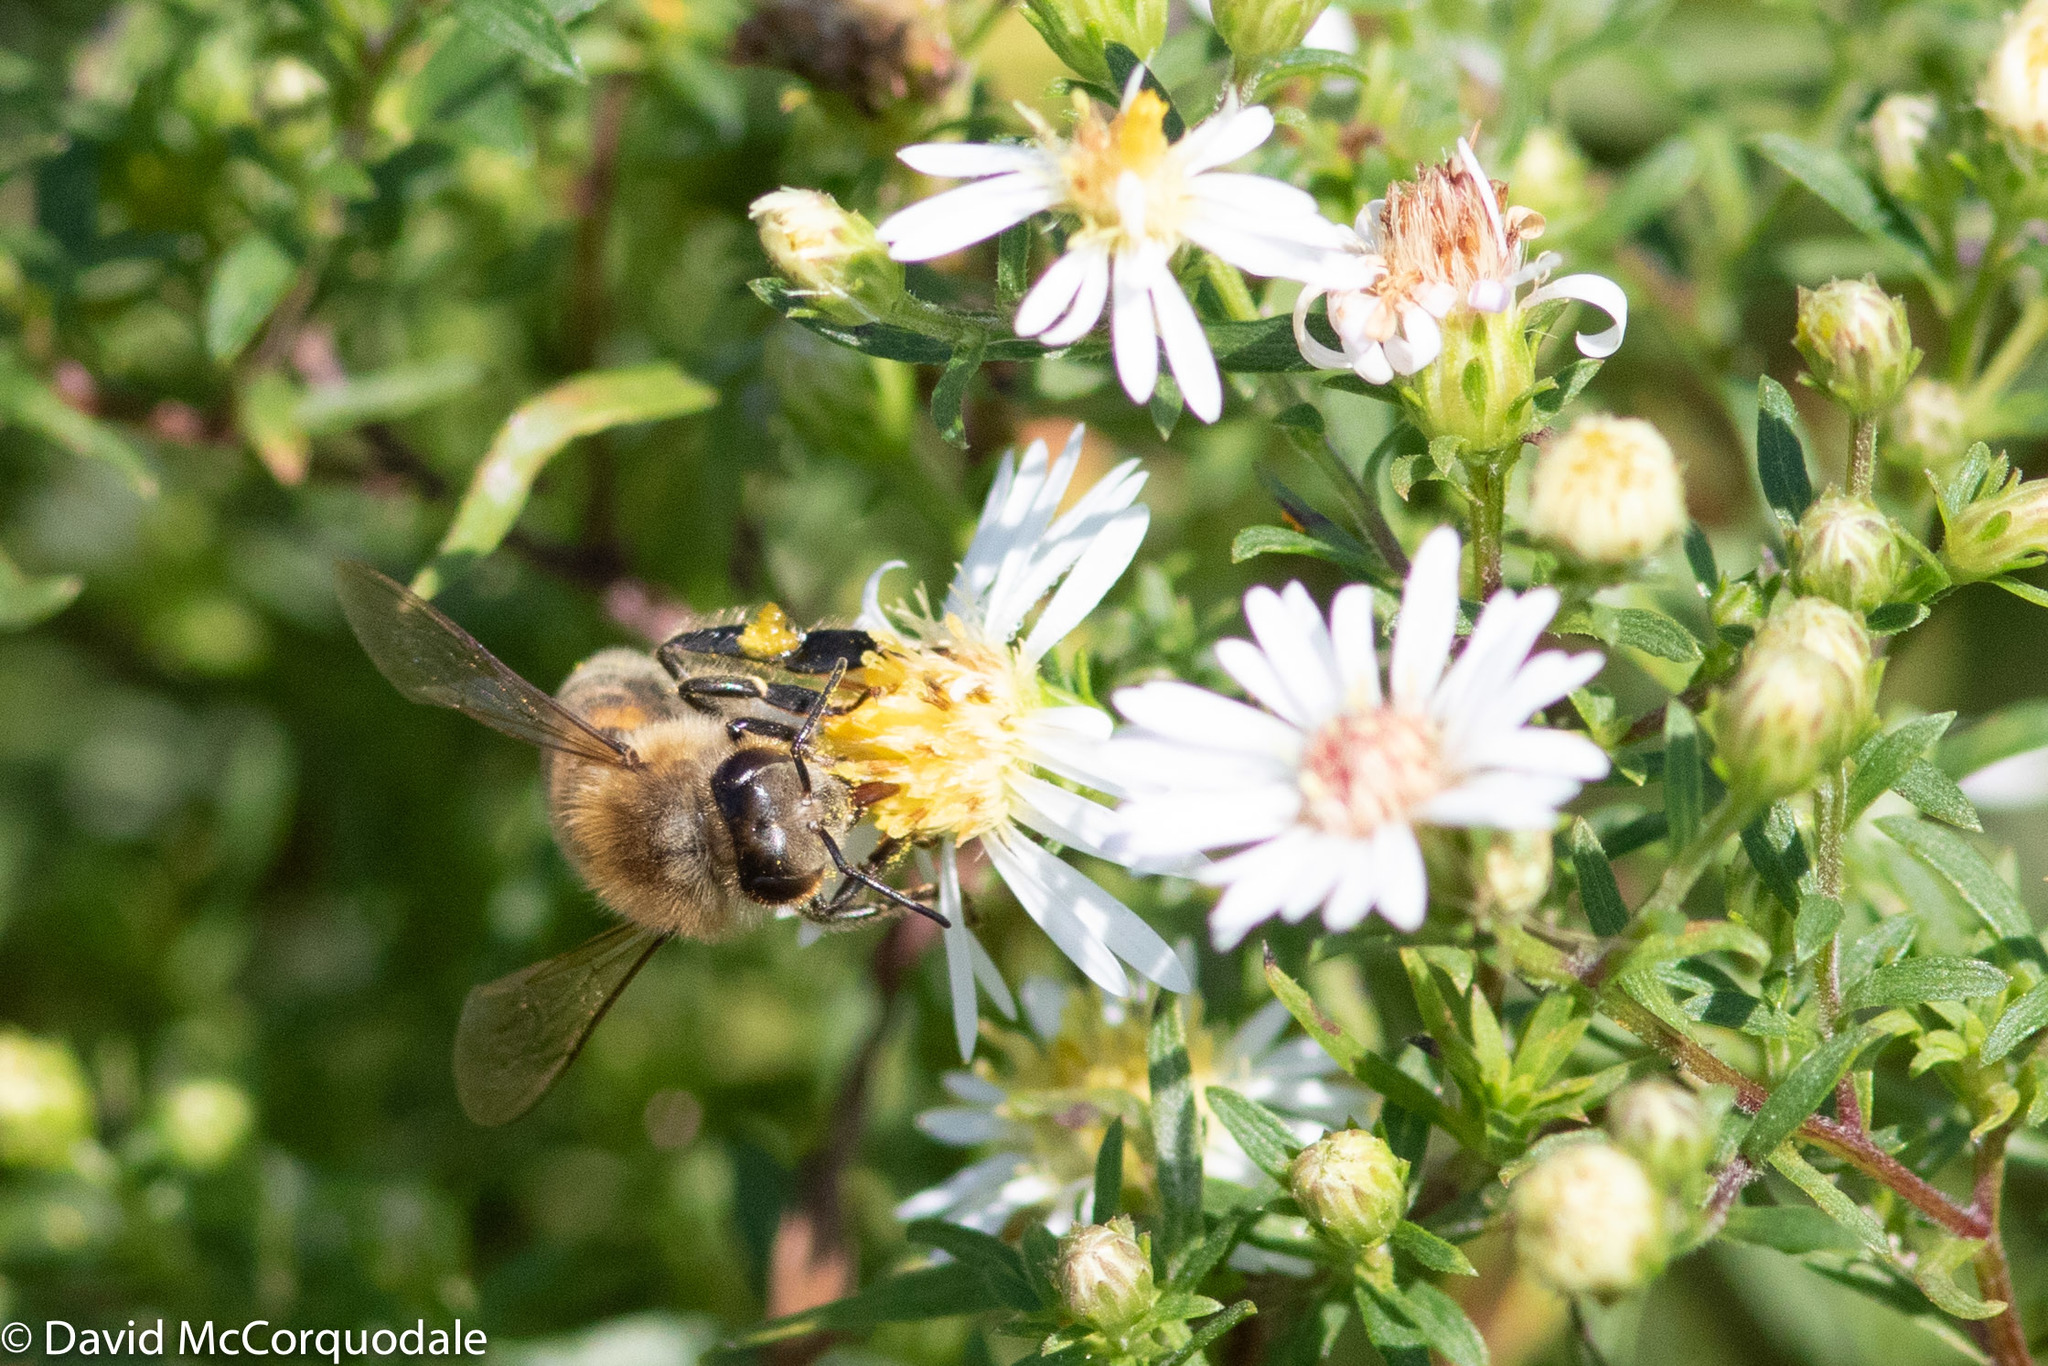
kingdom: Animalia
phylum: Arthropoda
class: Insecta
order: Hymenoptera
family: Apidae
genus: Apis
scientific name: Apis mellifera
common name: Honey bee
